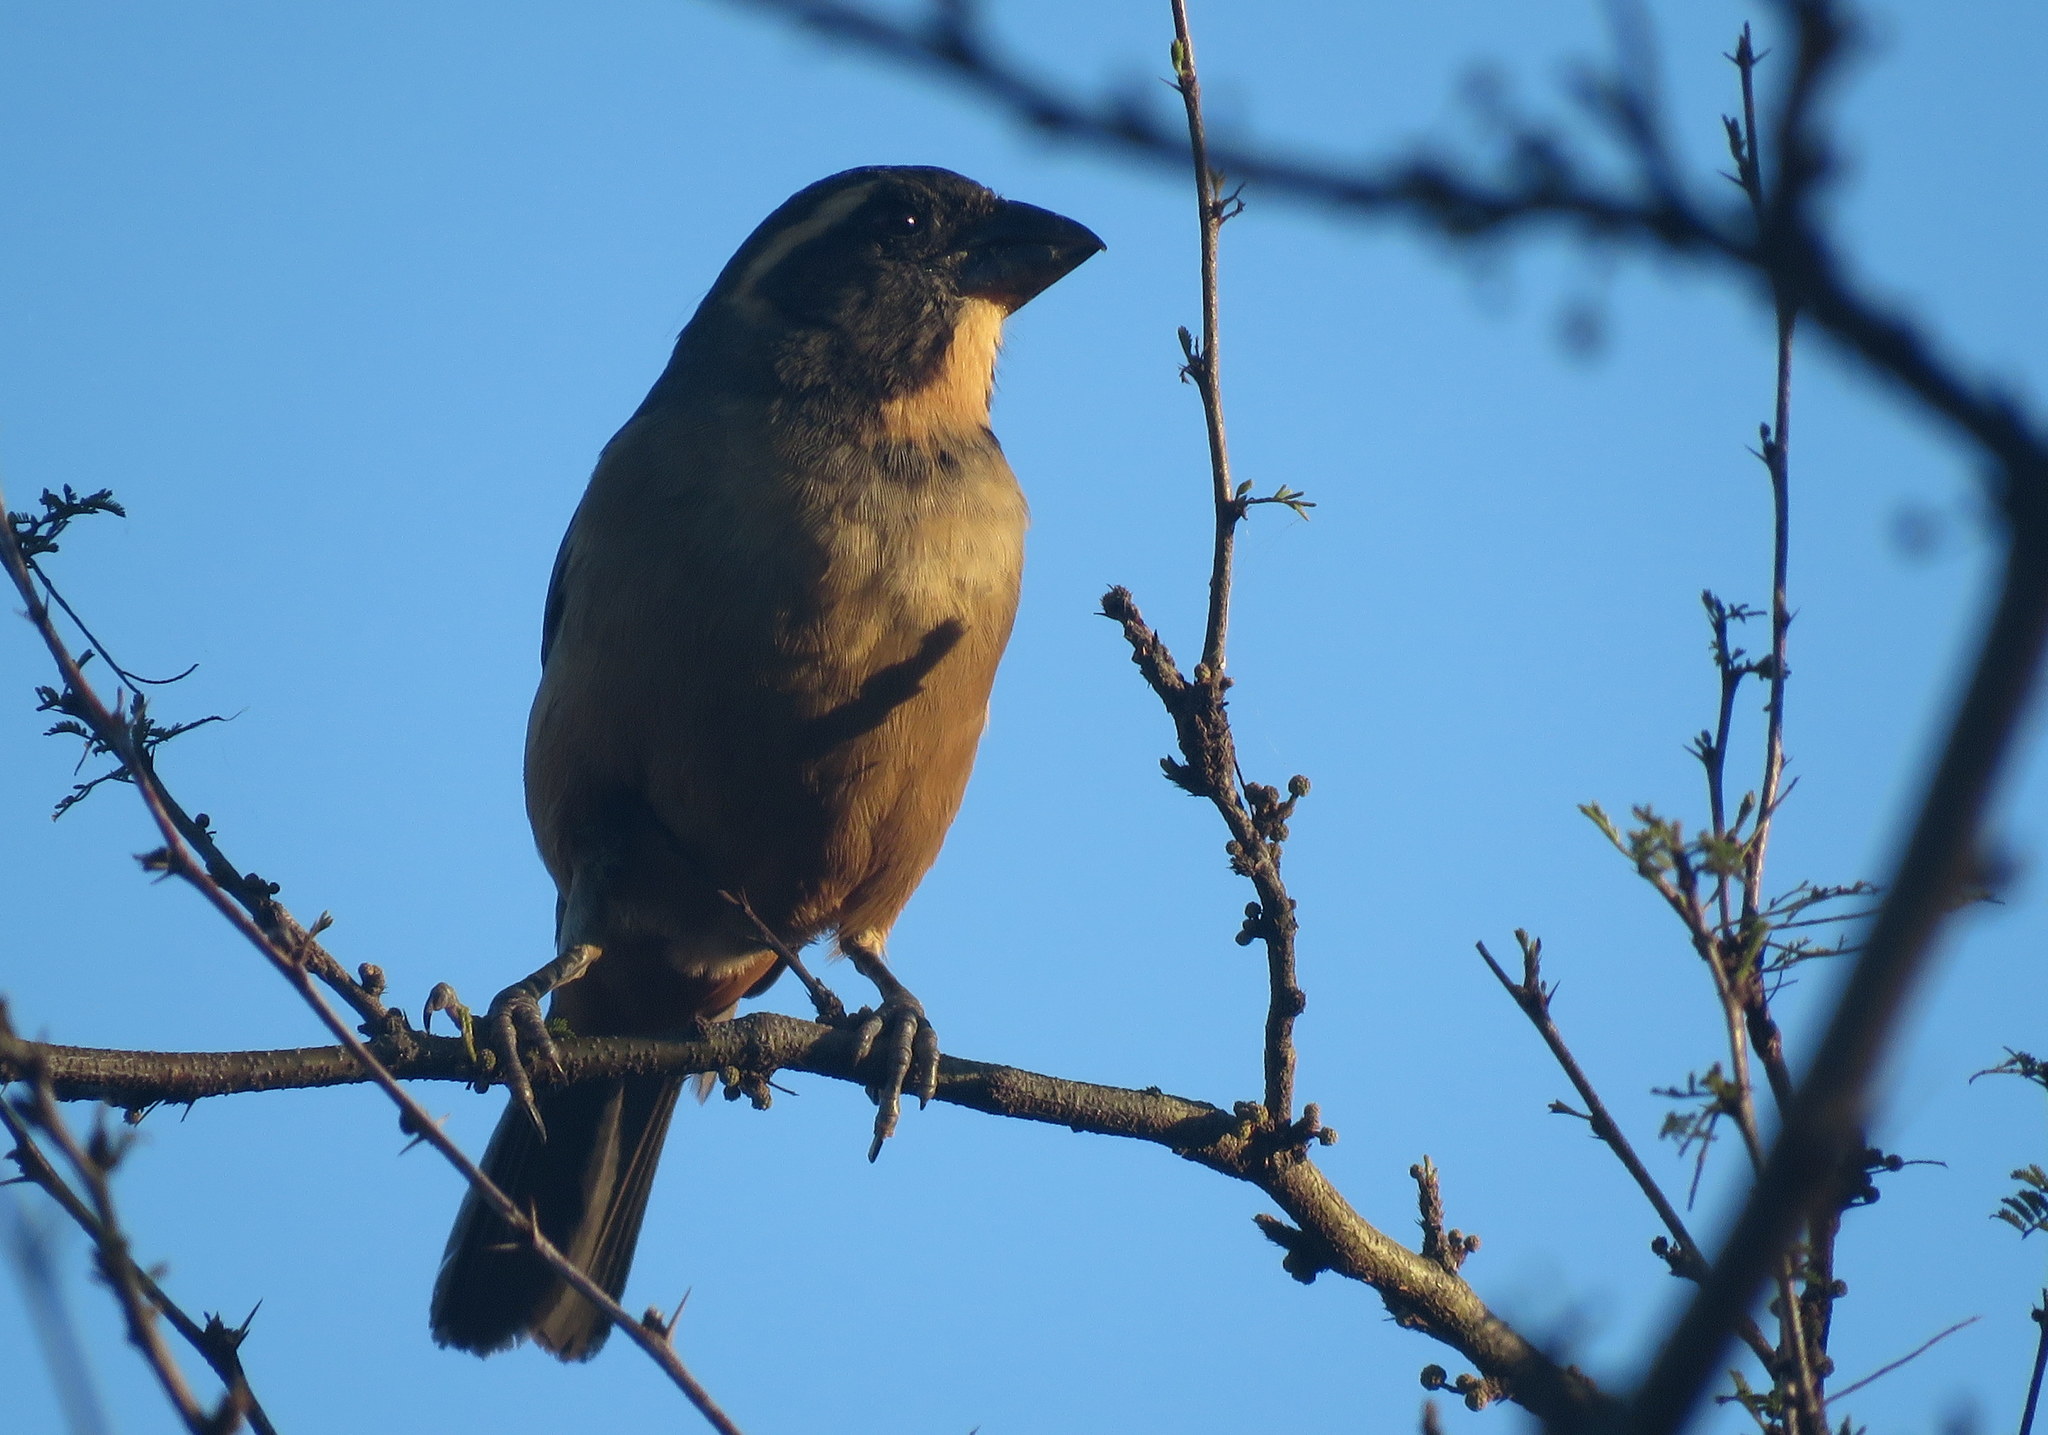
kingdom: Animalia
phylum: Chordata
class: Aves
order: Passeriformes
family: Thraupidae
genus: Saltator
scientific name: Saltator aurantiirostris
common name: Golden-billed saltator
